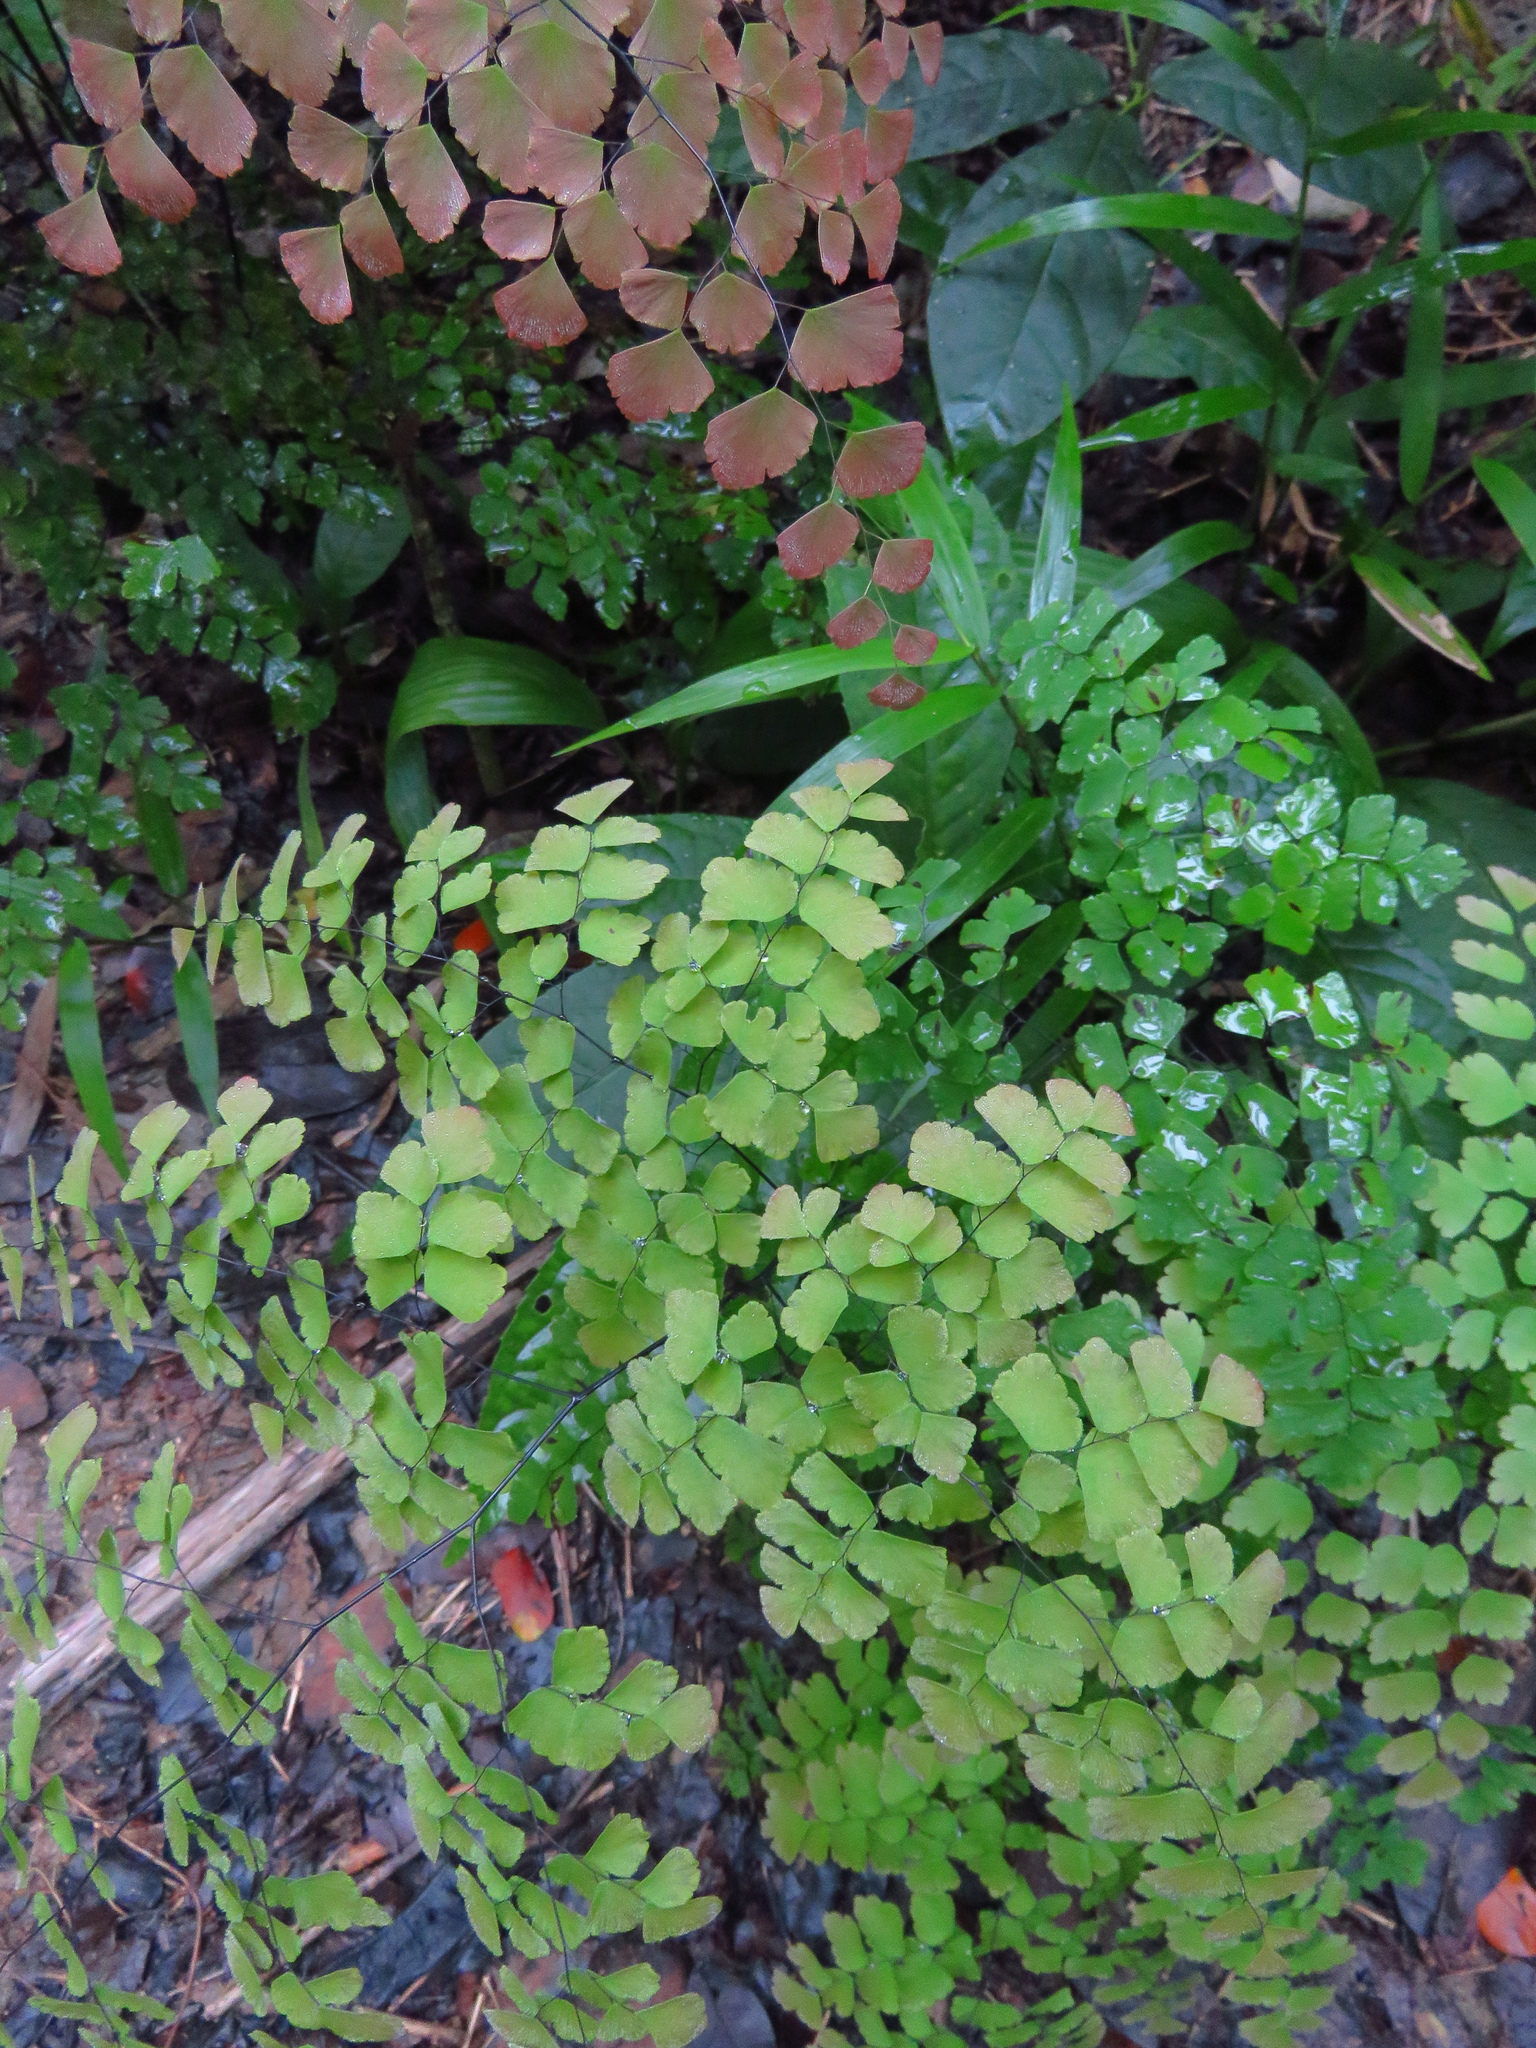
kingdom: Plantae
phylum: Tracheophyta
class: Polypodiopsida
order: Polypodiales
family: Pteridaceae
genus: Adiantum
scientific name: Adiantum tenerum
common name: Fan maidenhair
